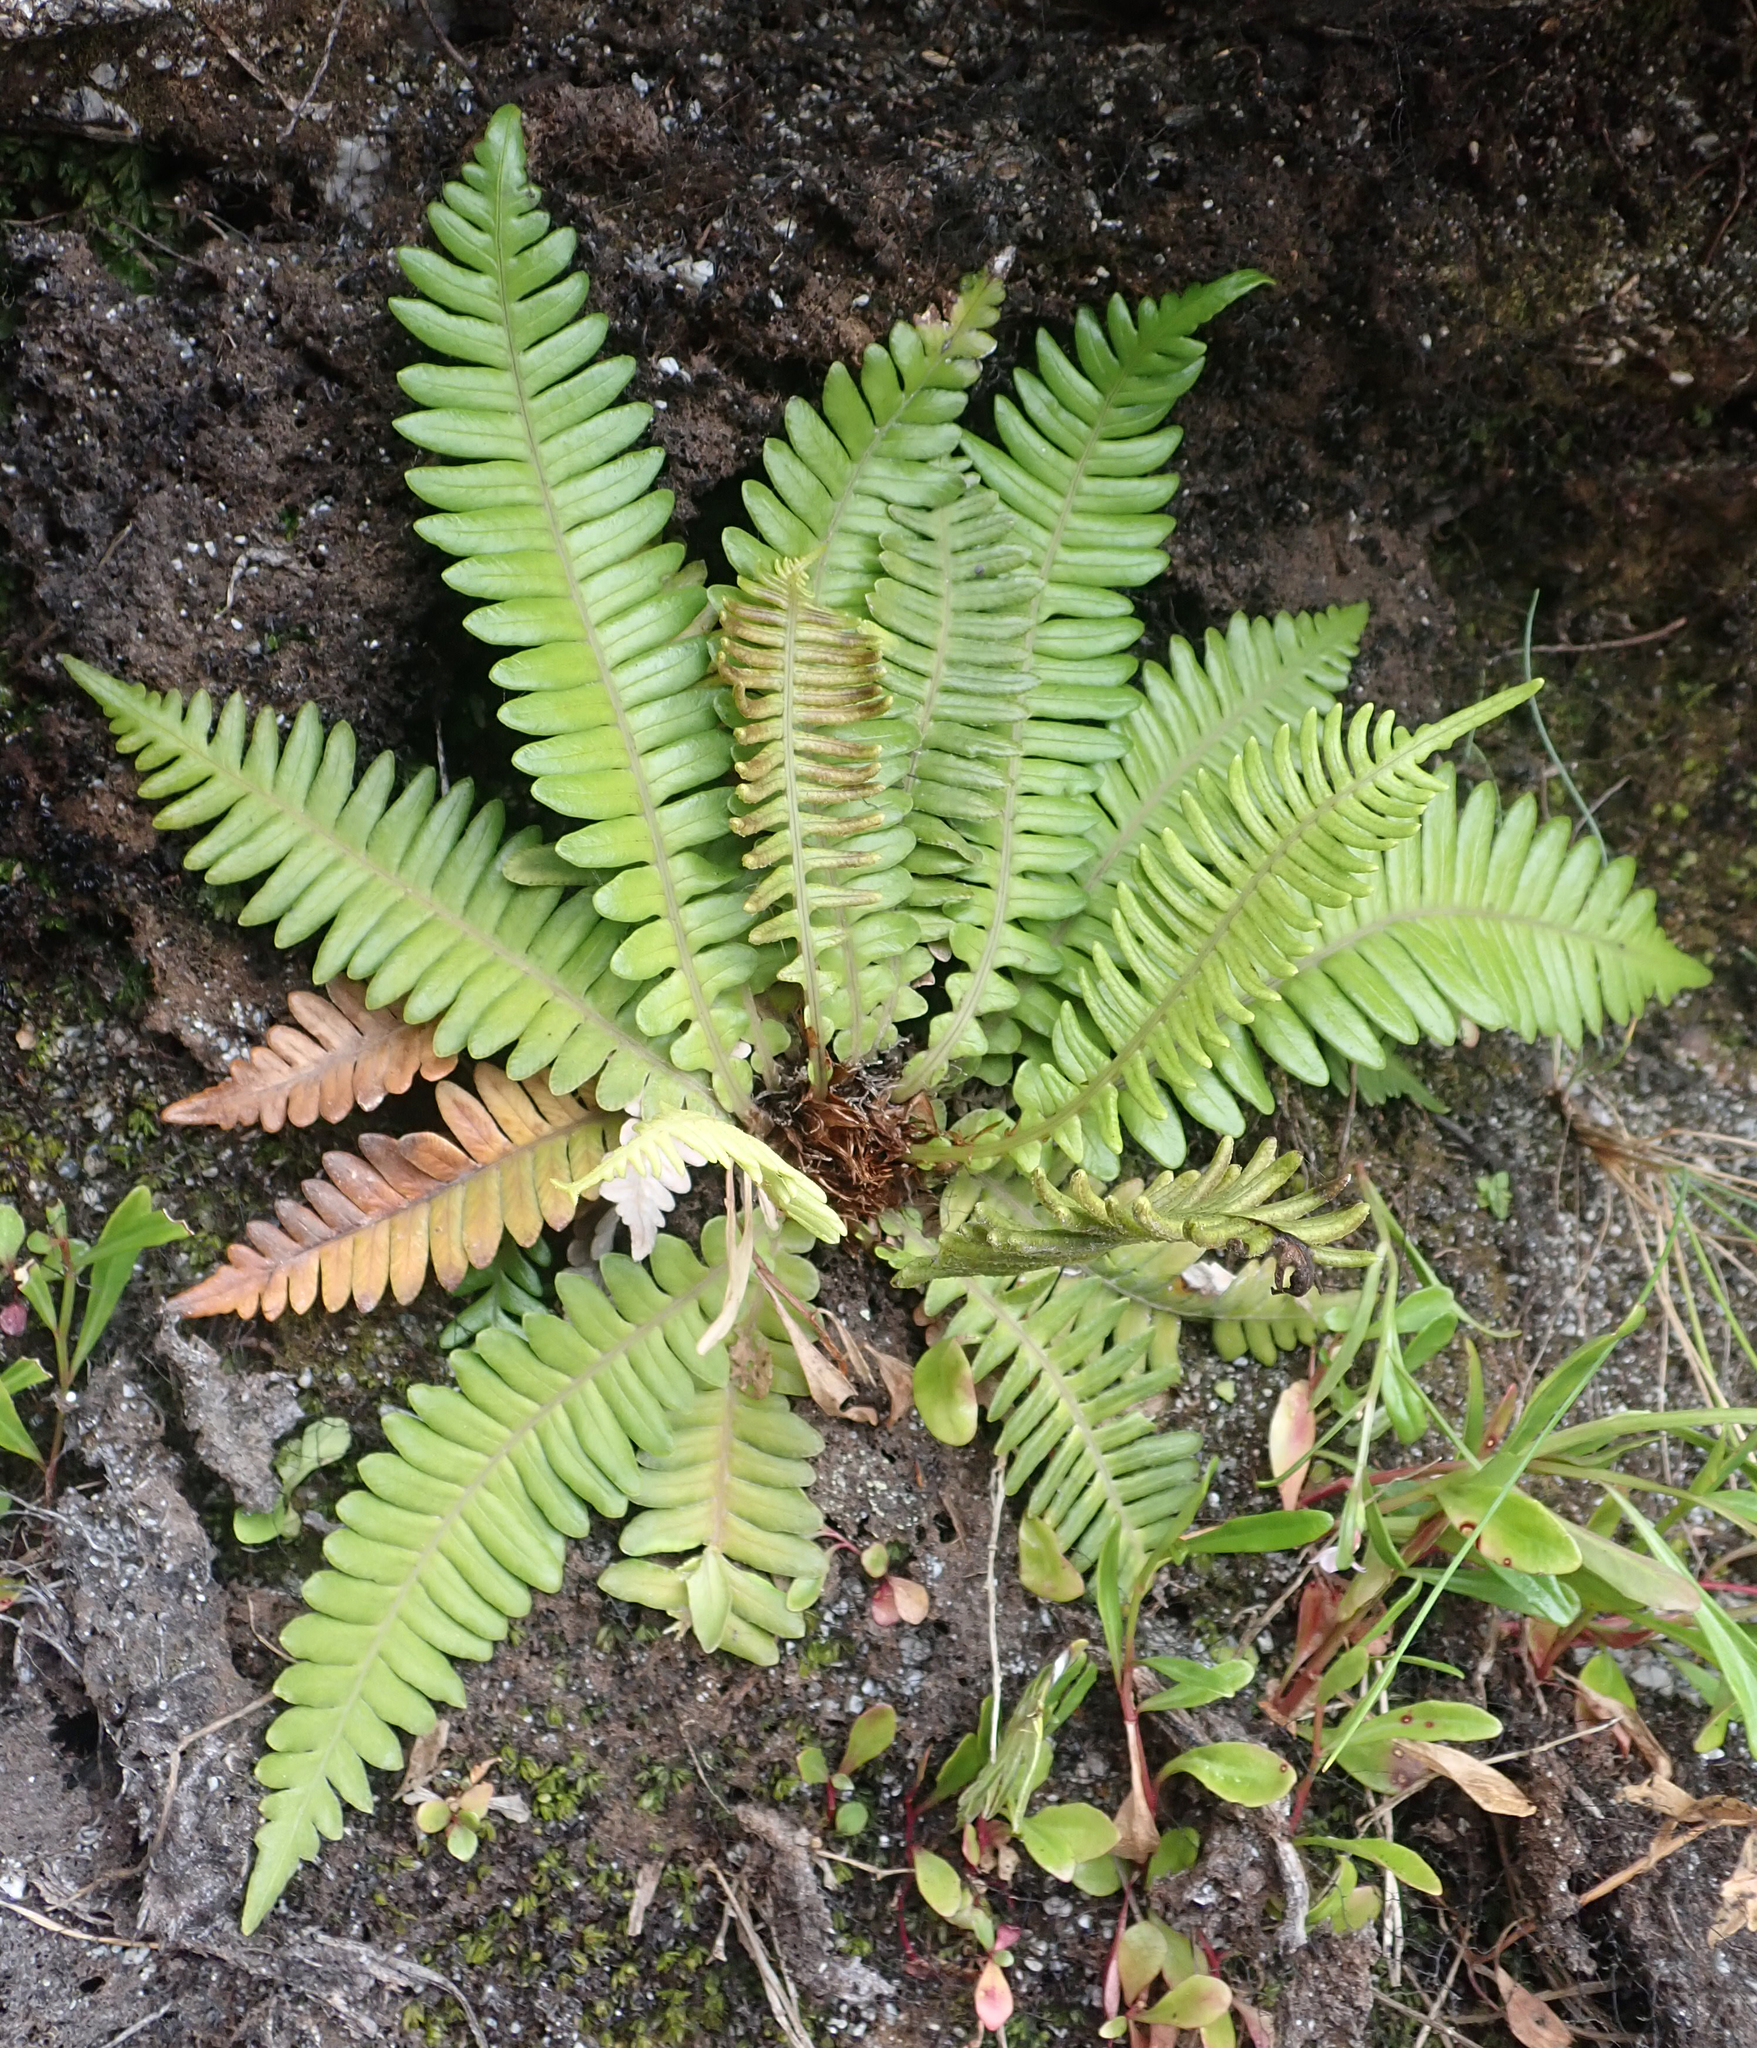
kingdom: Plantae
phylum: Tracheophyta
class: Polypodiopsida
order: Polypodiales
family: Blechnaceae
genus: Austroblechnum
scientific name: Austroblechnum durum
